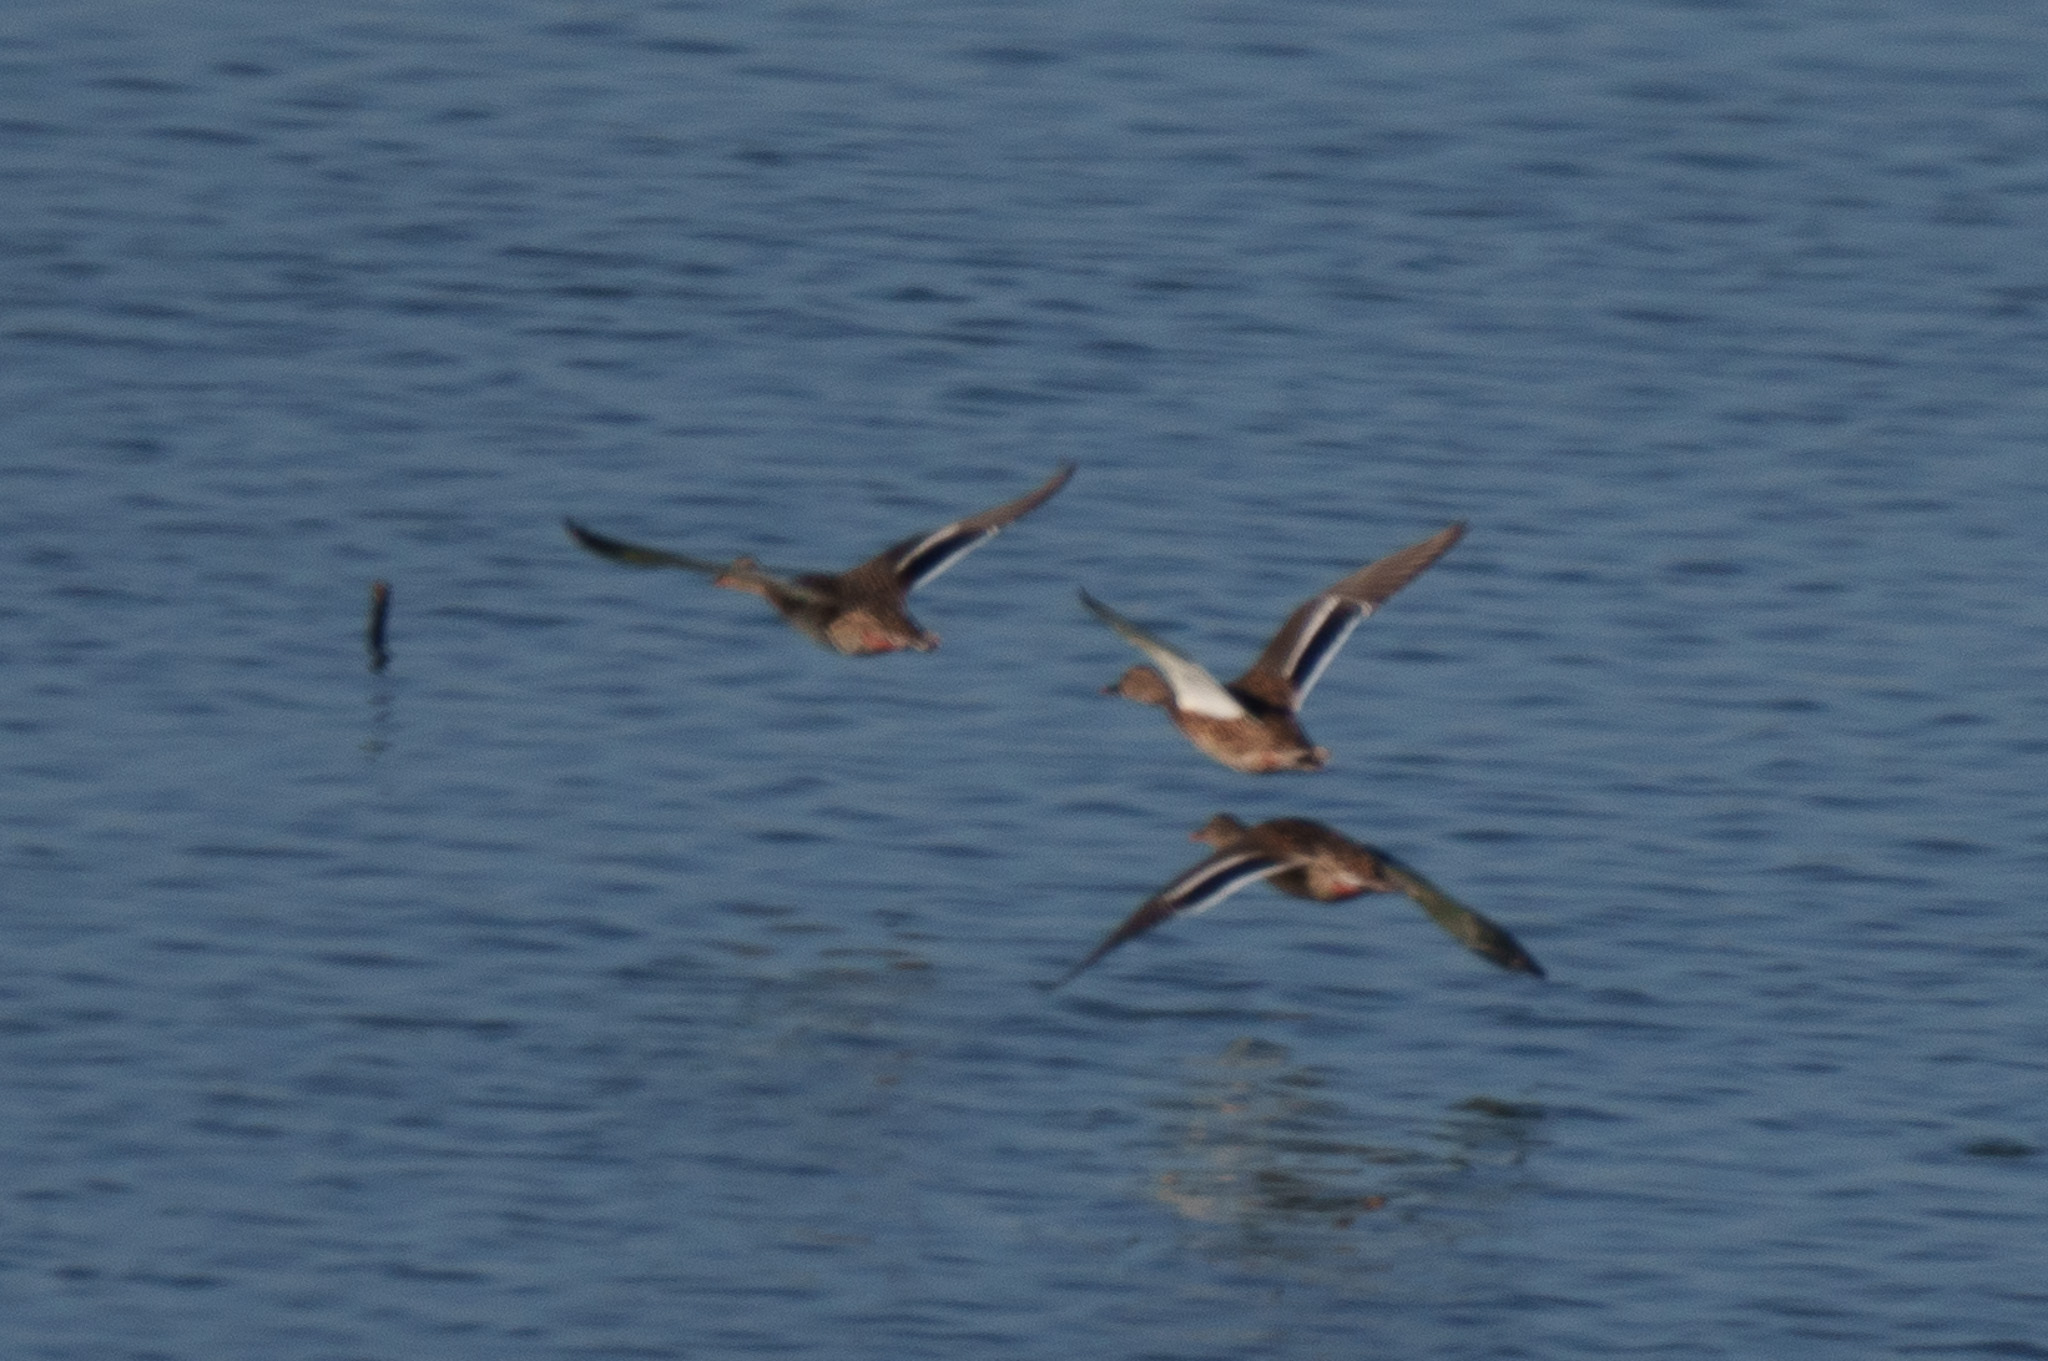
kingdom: Animalia
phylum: Chordata
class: Aves
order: Anseriformes
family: Anatidae
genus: Anas
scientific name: Anas platyrhynchos
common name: Mallard
